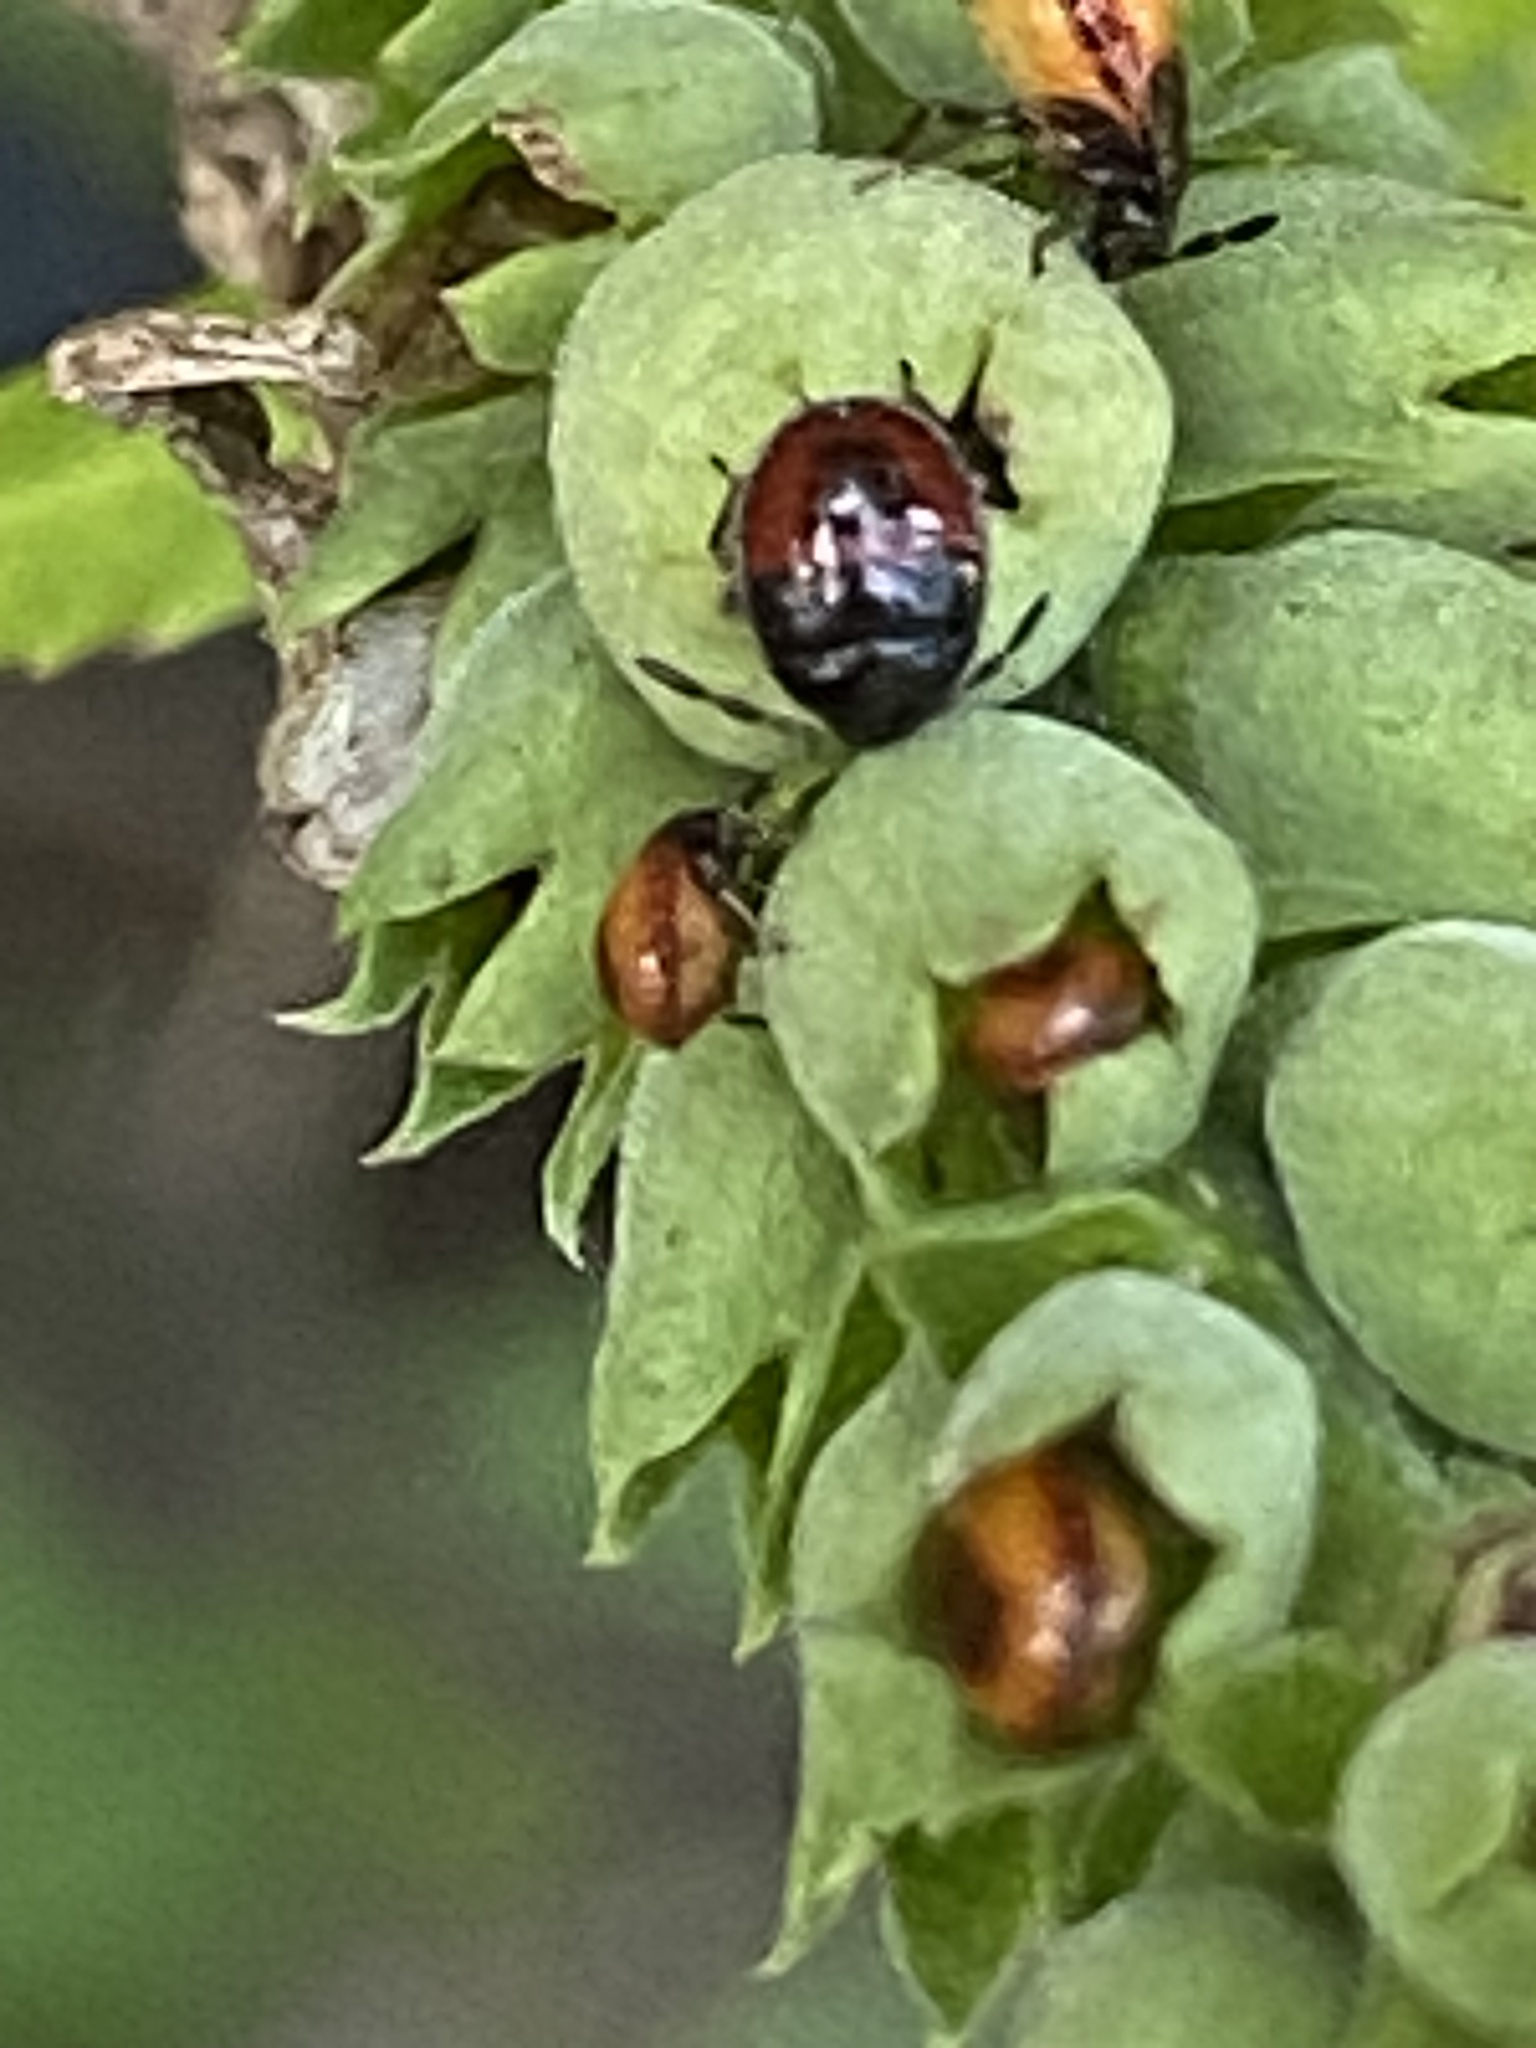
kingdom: Animalia
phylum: Arthropoda
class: Insecta
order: Hemiptera
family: Cydnidae
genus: Sehirus
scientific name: Sehirus cinctus
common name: White-margined burrower bug
